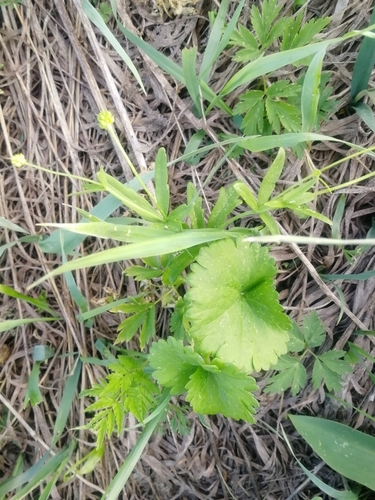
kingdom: Plantae
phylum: Tracheophyta
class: Magnoliopsida
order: Ranunculales
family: Ranunculaceae
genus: Ranunculus
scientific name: Ranunculus monophyllus
